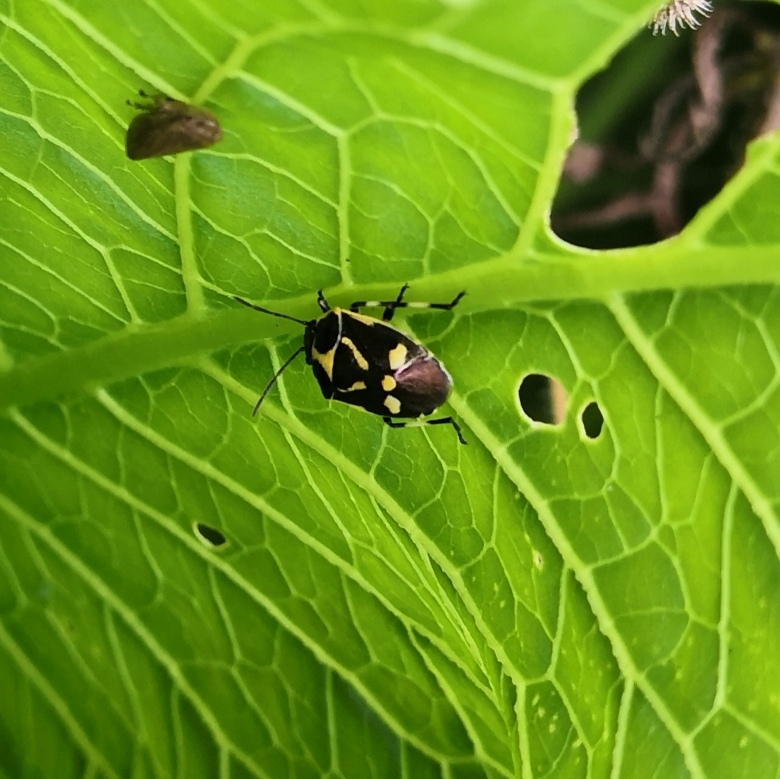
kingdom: Animalia
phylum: Arthropoda
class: Insecta
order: Hemiptera
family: Pentatomidae
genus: Eurydema
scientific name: Eurydema oleracea
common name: Cabbage bug
